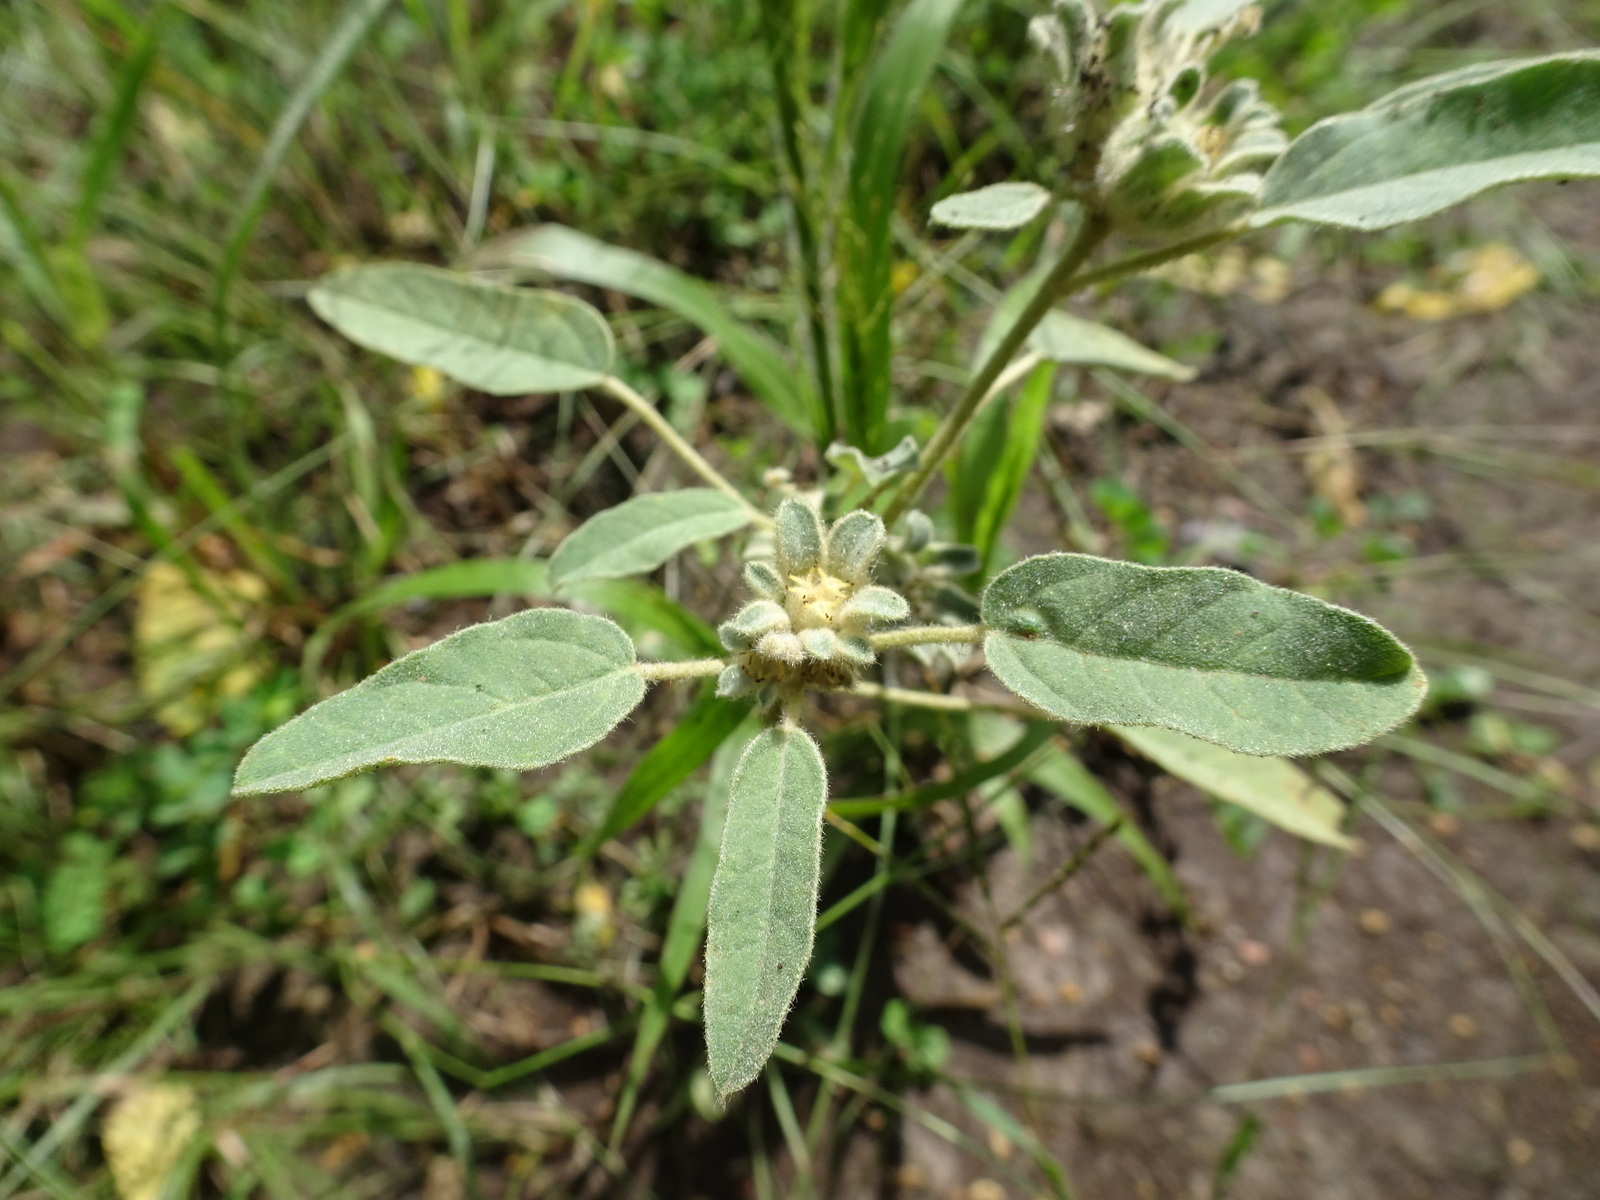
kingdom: Plantae
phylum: Tracheophyta
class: Magnoliopsida
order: Malpighiales
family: Euphorbiaceae
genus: Croton
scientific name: Croton capitatus
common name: Woolly croton
